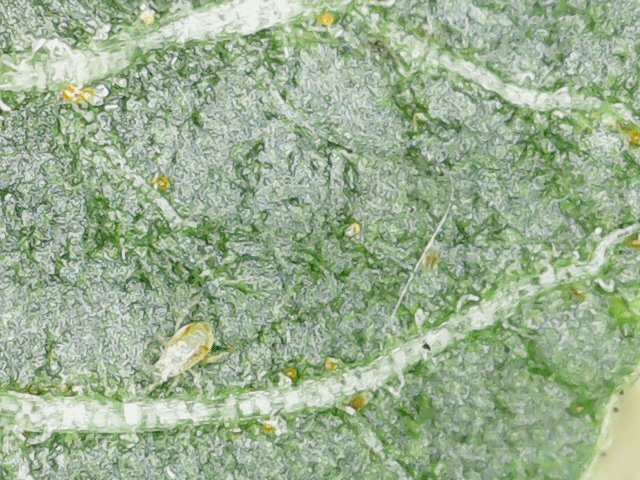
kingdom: Animalia
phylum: Arthropoda
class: Arachnida
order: Mesostigmata
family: Phytoseiidae
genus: Neoseiulus
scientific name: Neoseiulus californicus
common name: Mite
